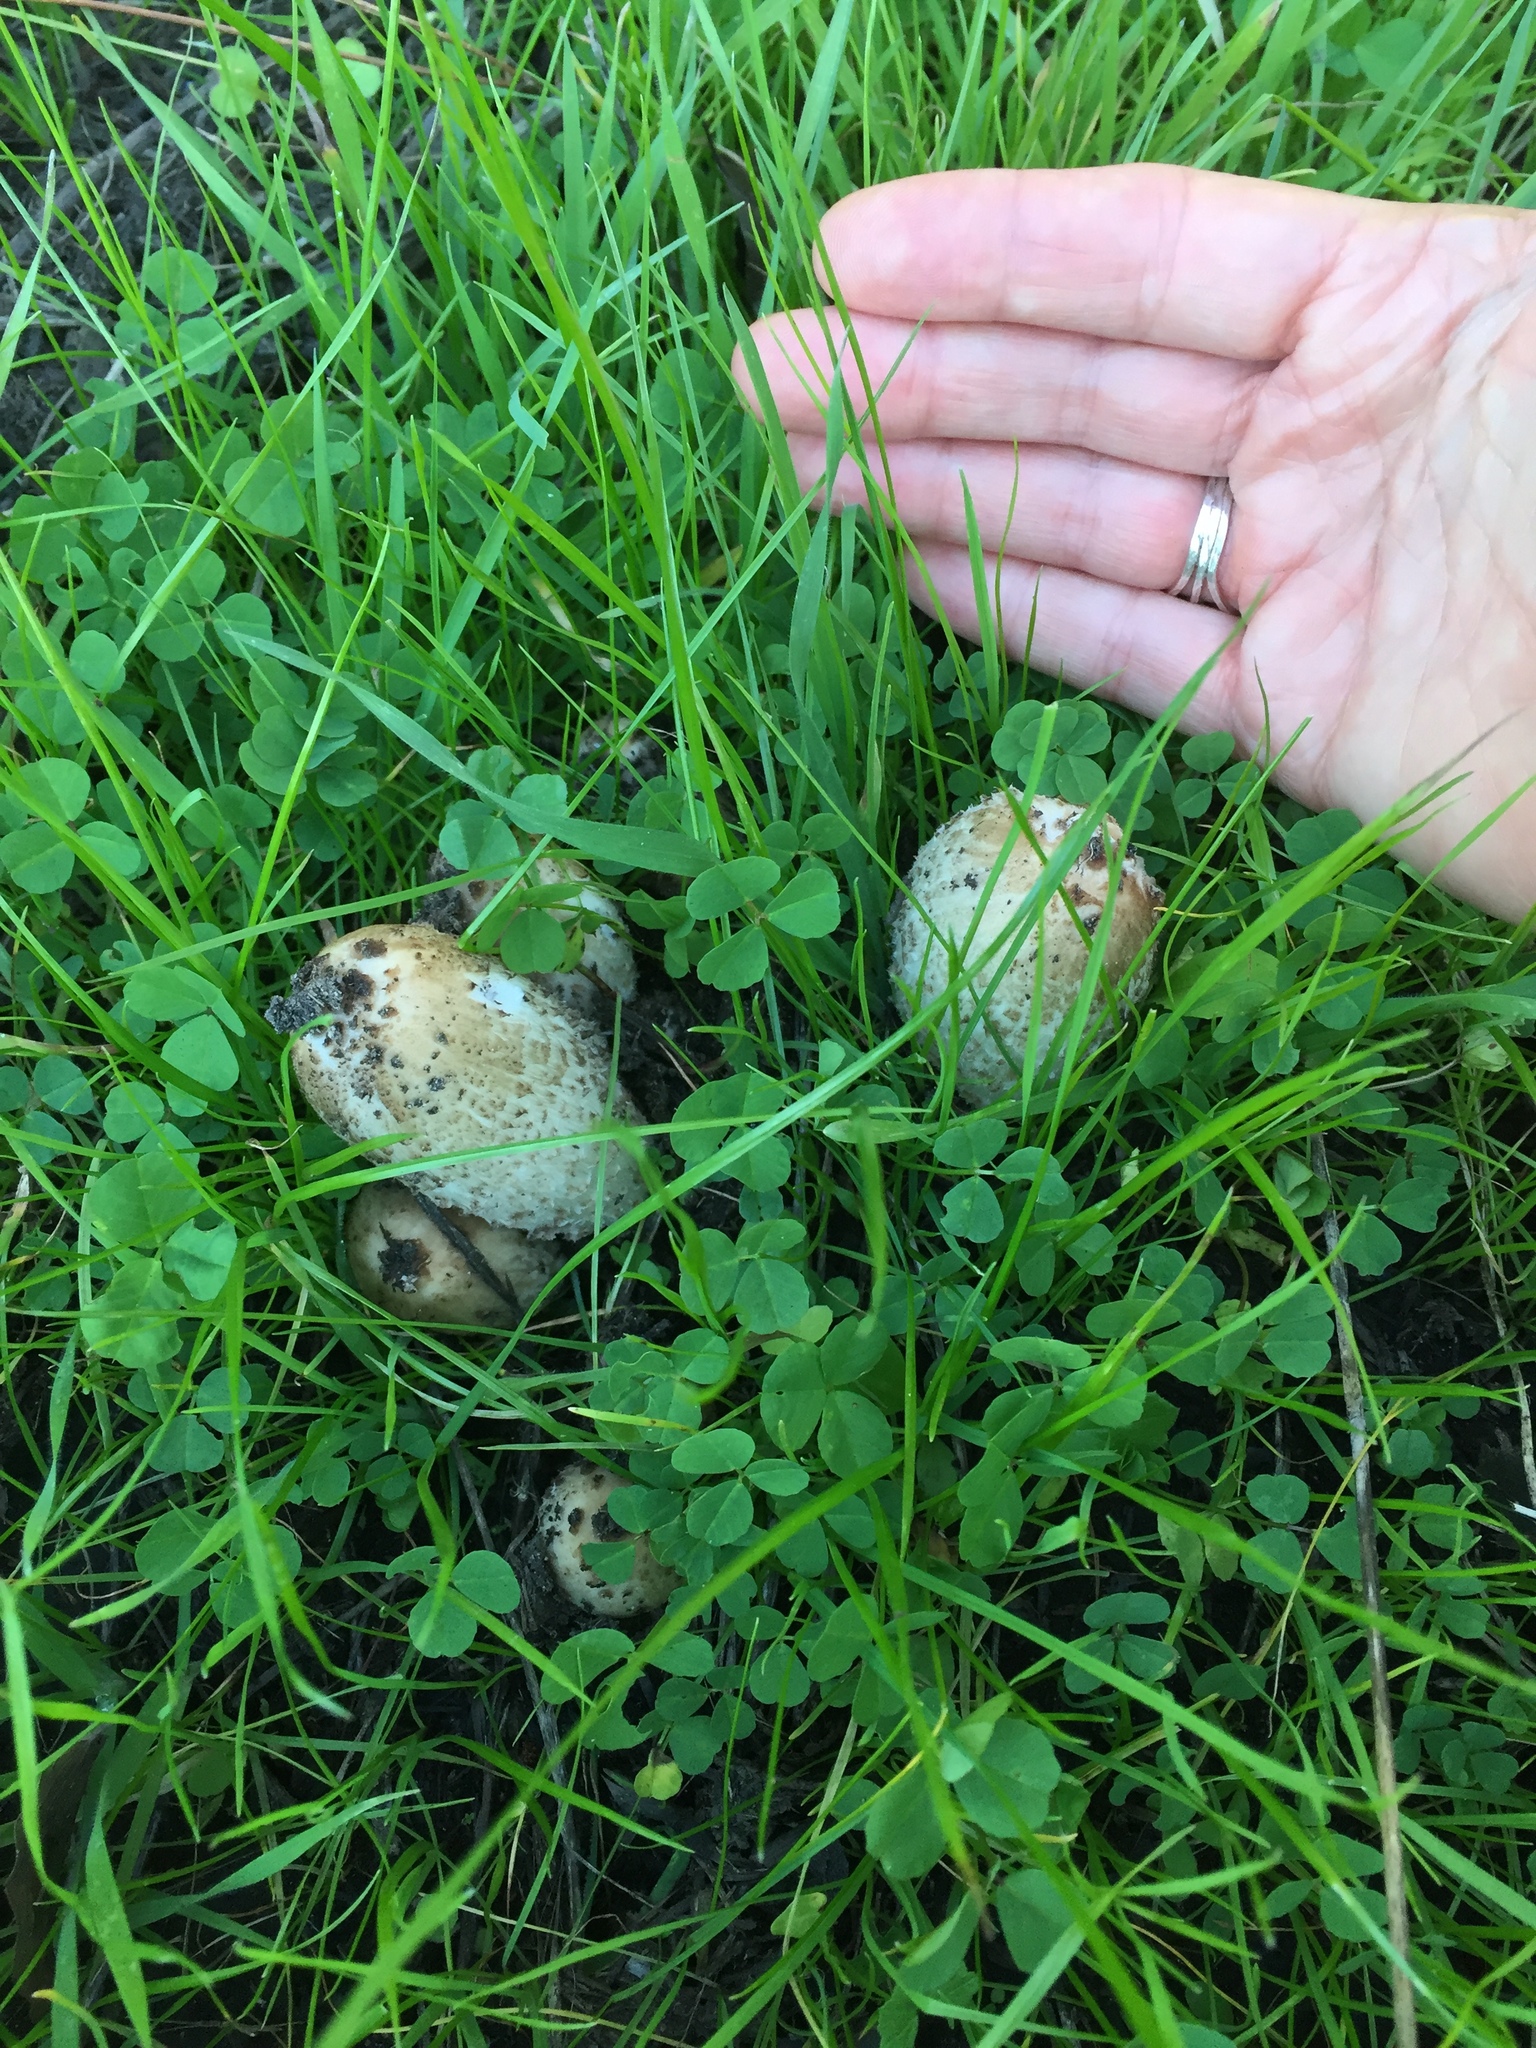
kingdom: Fungi
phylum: Basidiomycota
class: Agaricomycetes
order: Agaricales
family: Agaricaceae
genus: Coprinus
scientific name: Coprinus comatus
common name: Lawyer's wig
